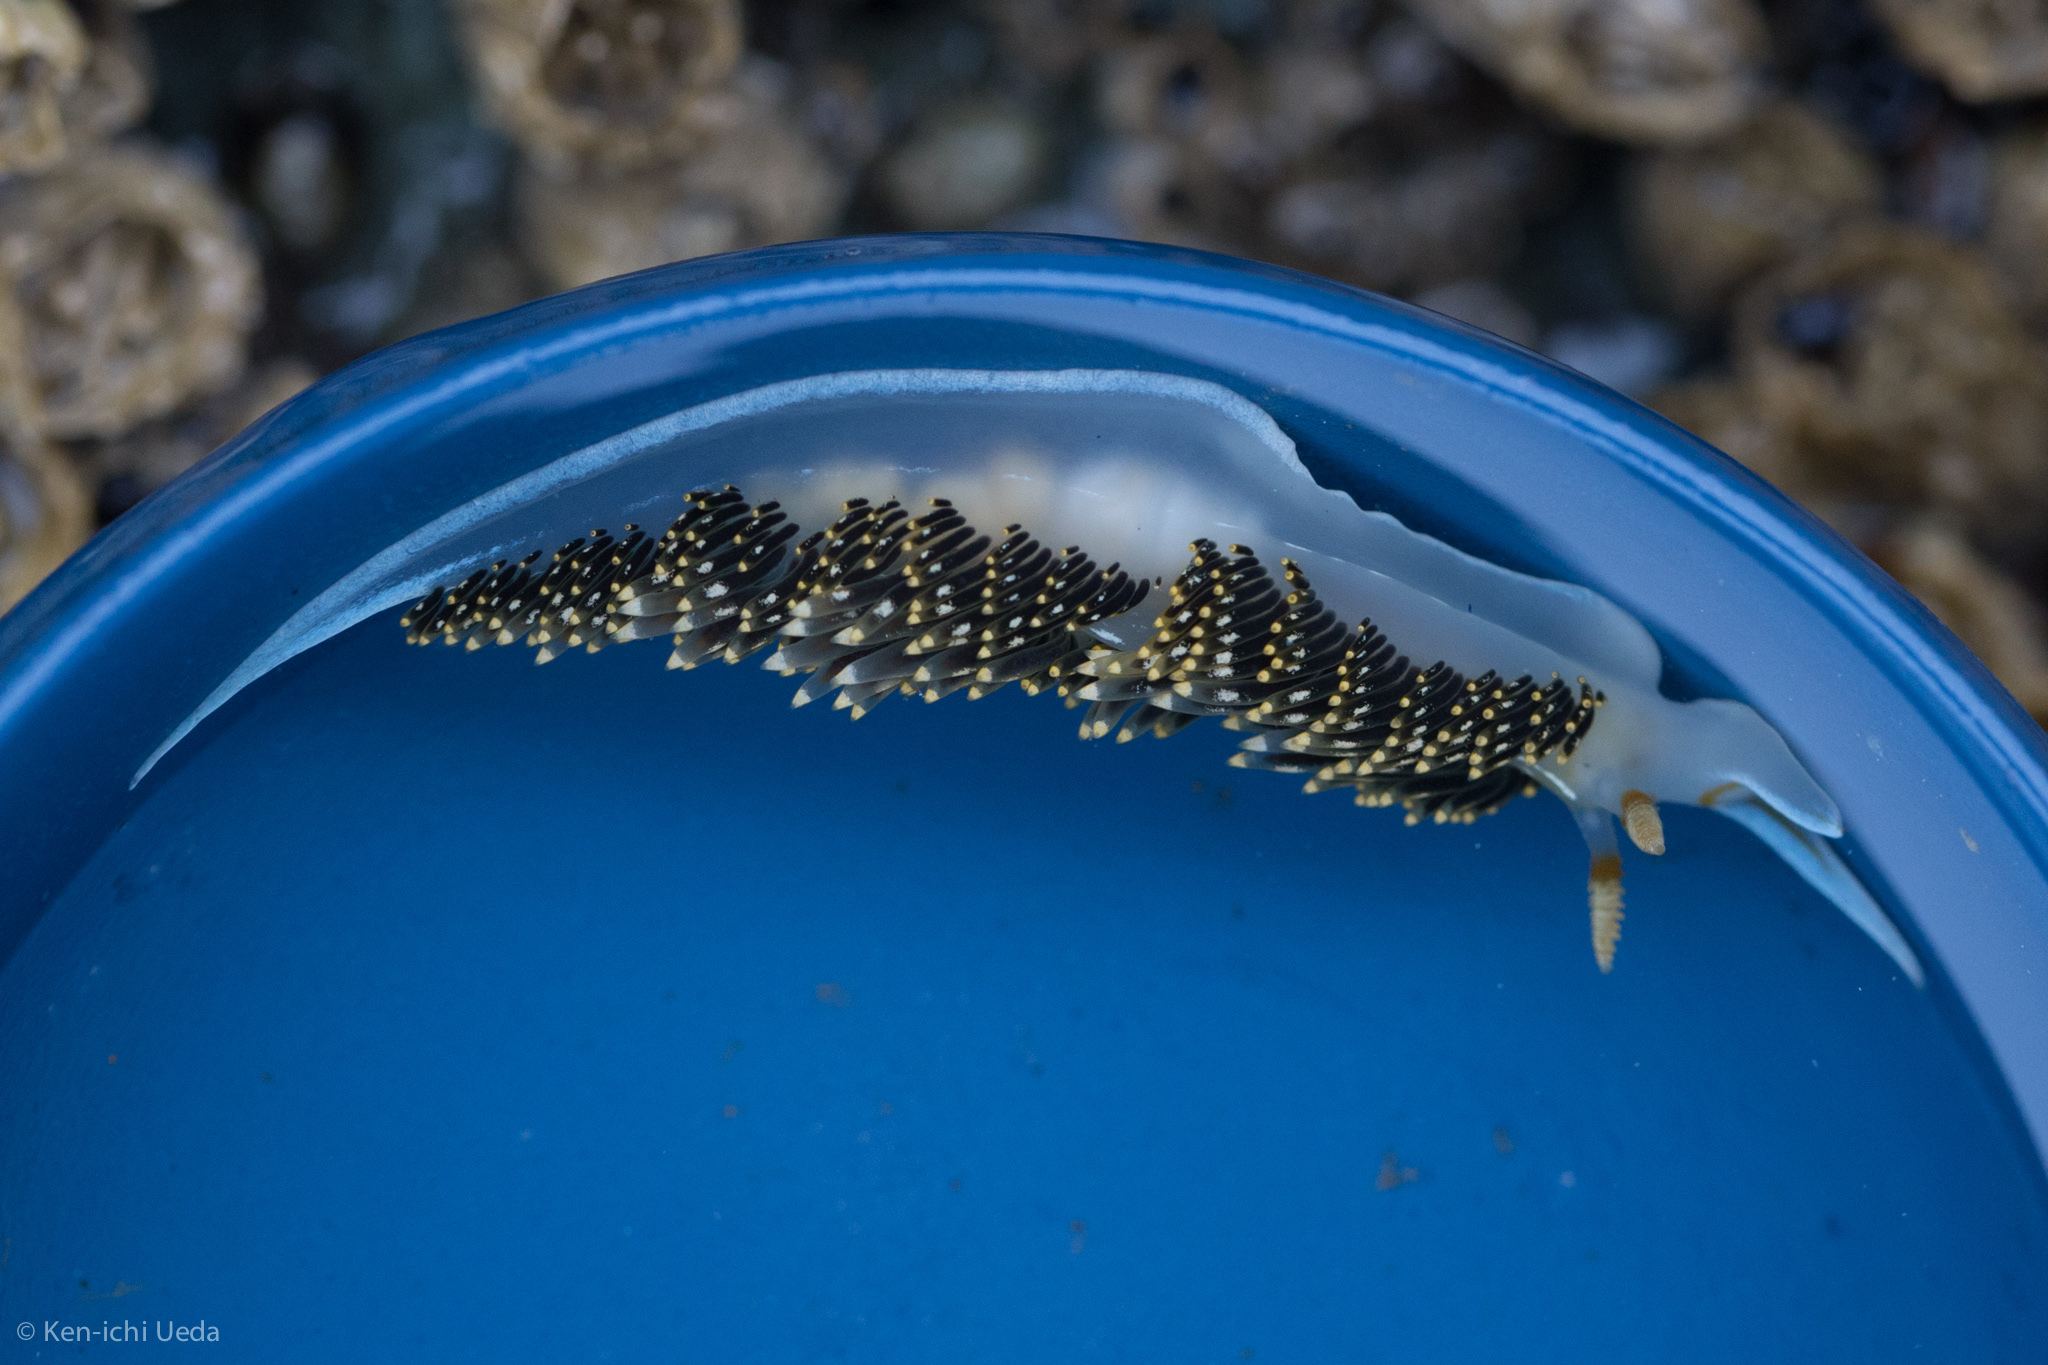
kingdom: Animalia
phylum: Mollusca
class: Gastropoda
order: Nudibranchia
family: Facelinidae
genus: Phidiana
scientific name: Phidiana hiltoni
